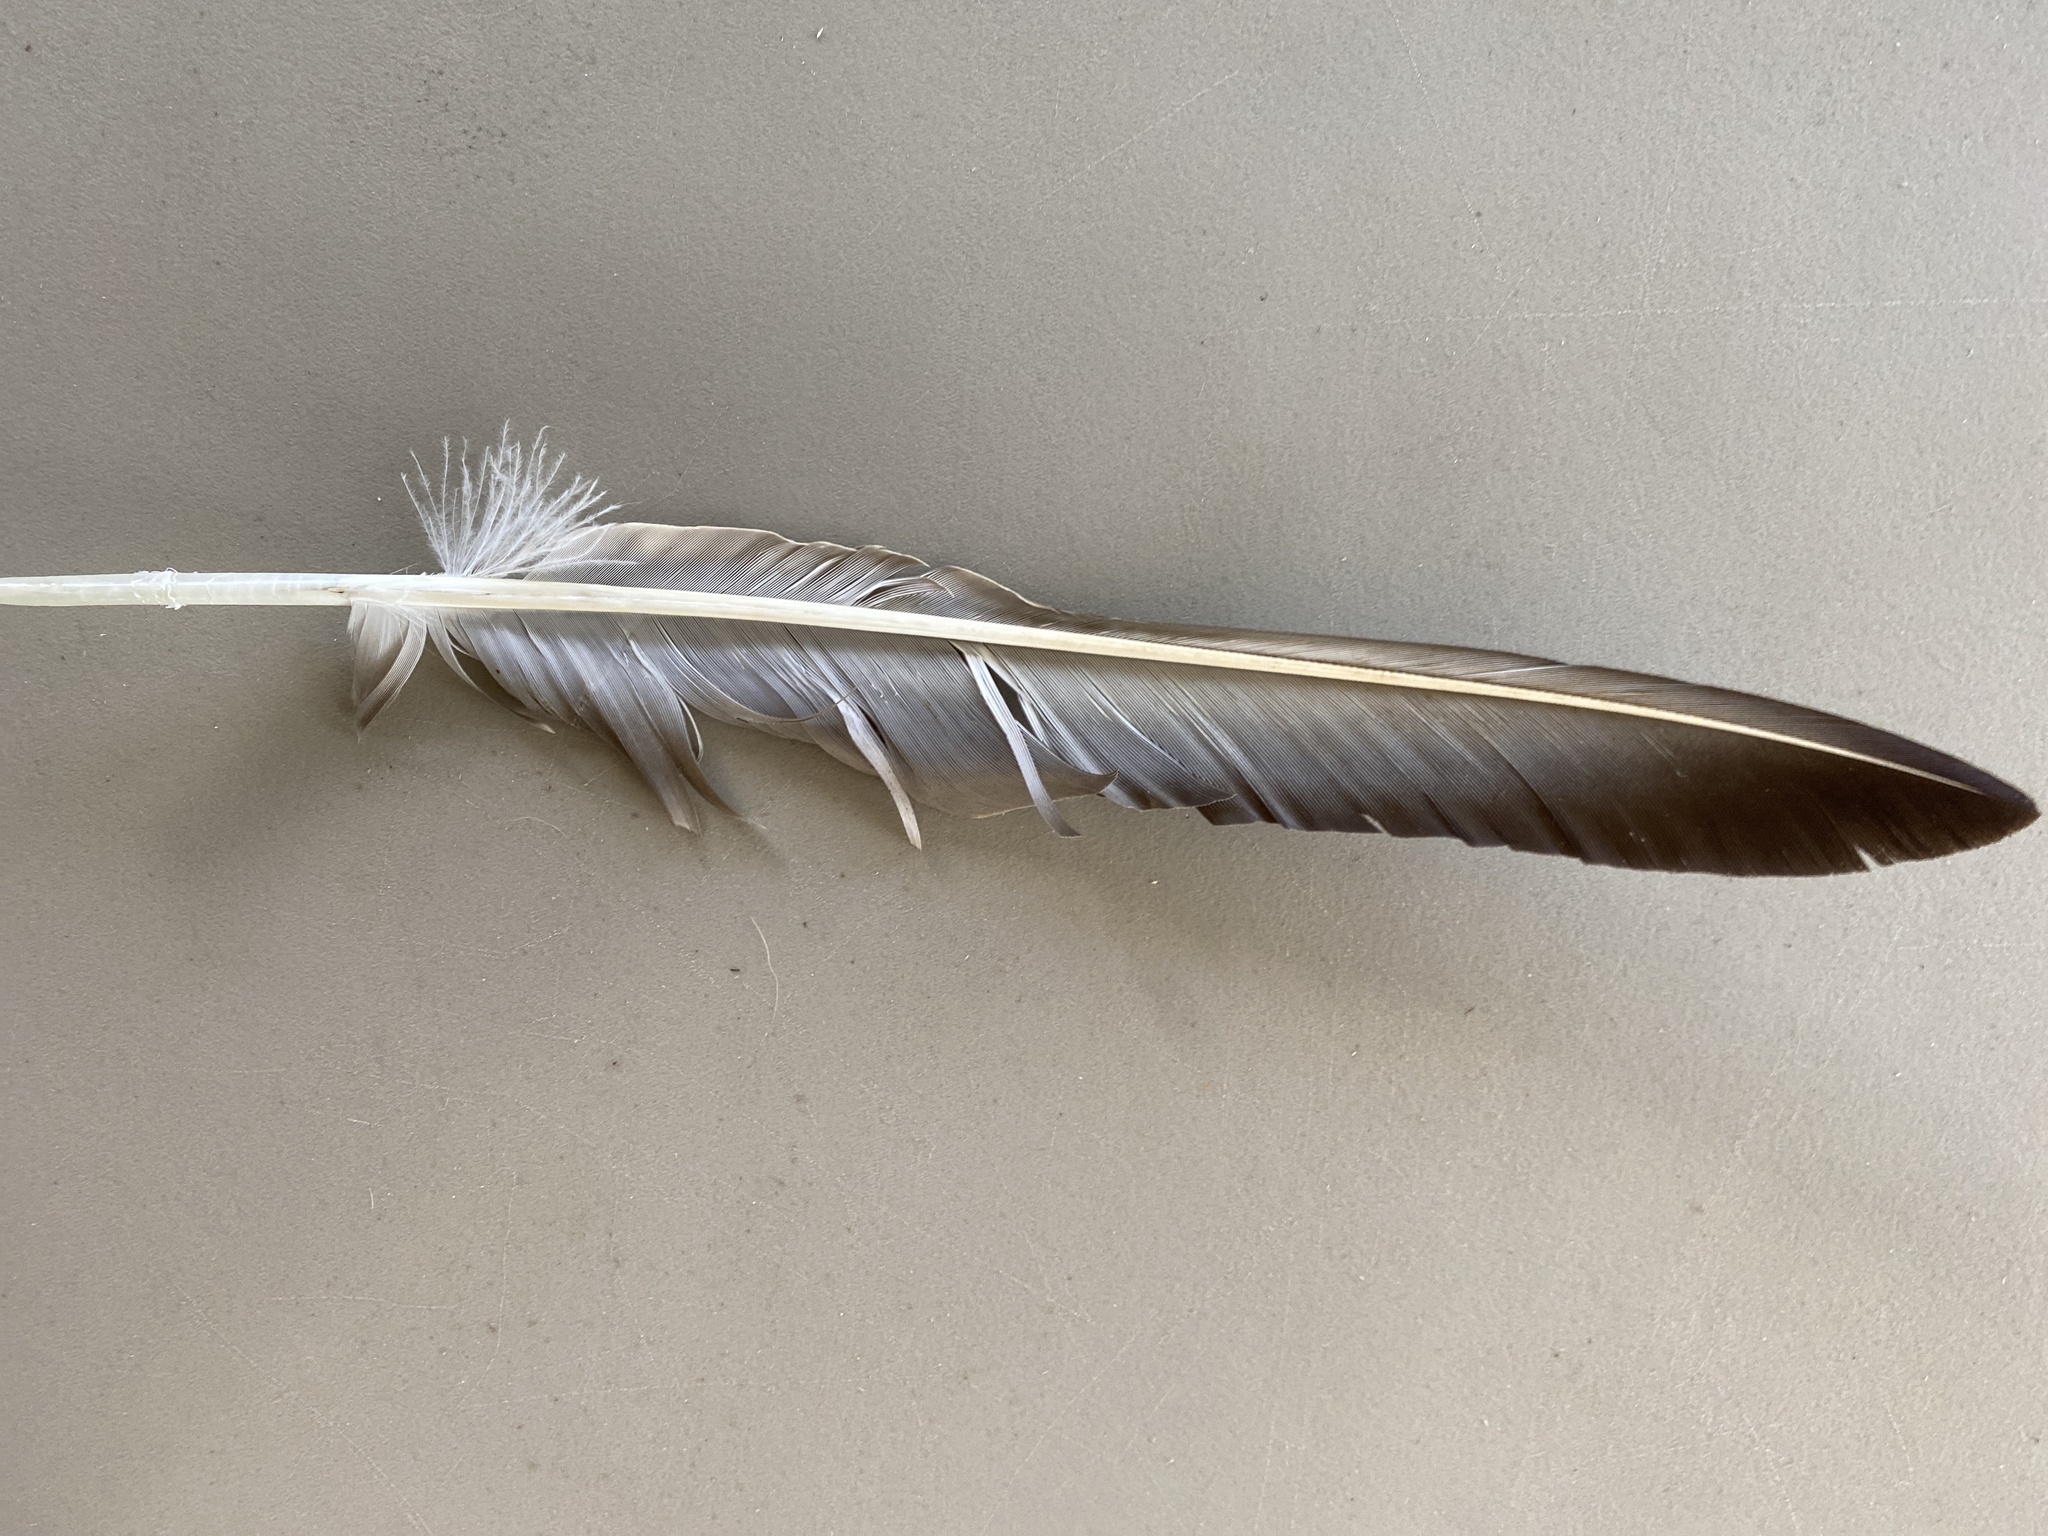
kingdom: Animalia
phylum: Chordata
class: Aves
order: Accipitriformes
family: Cathartidae
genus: Coragyps
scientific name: Coragyps atratus
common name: Black vulture
